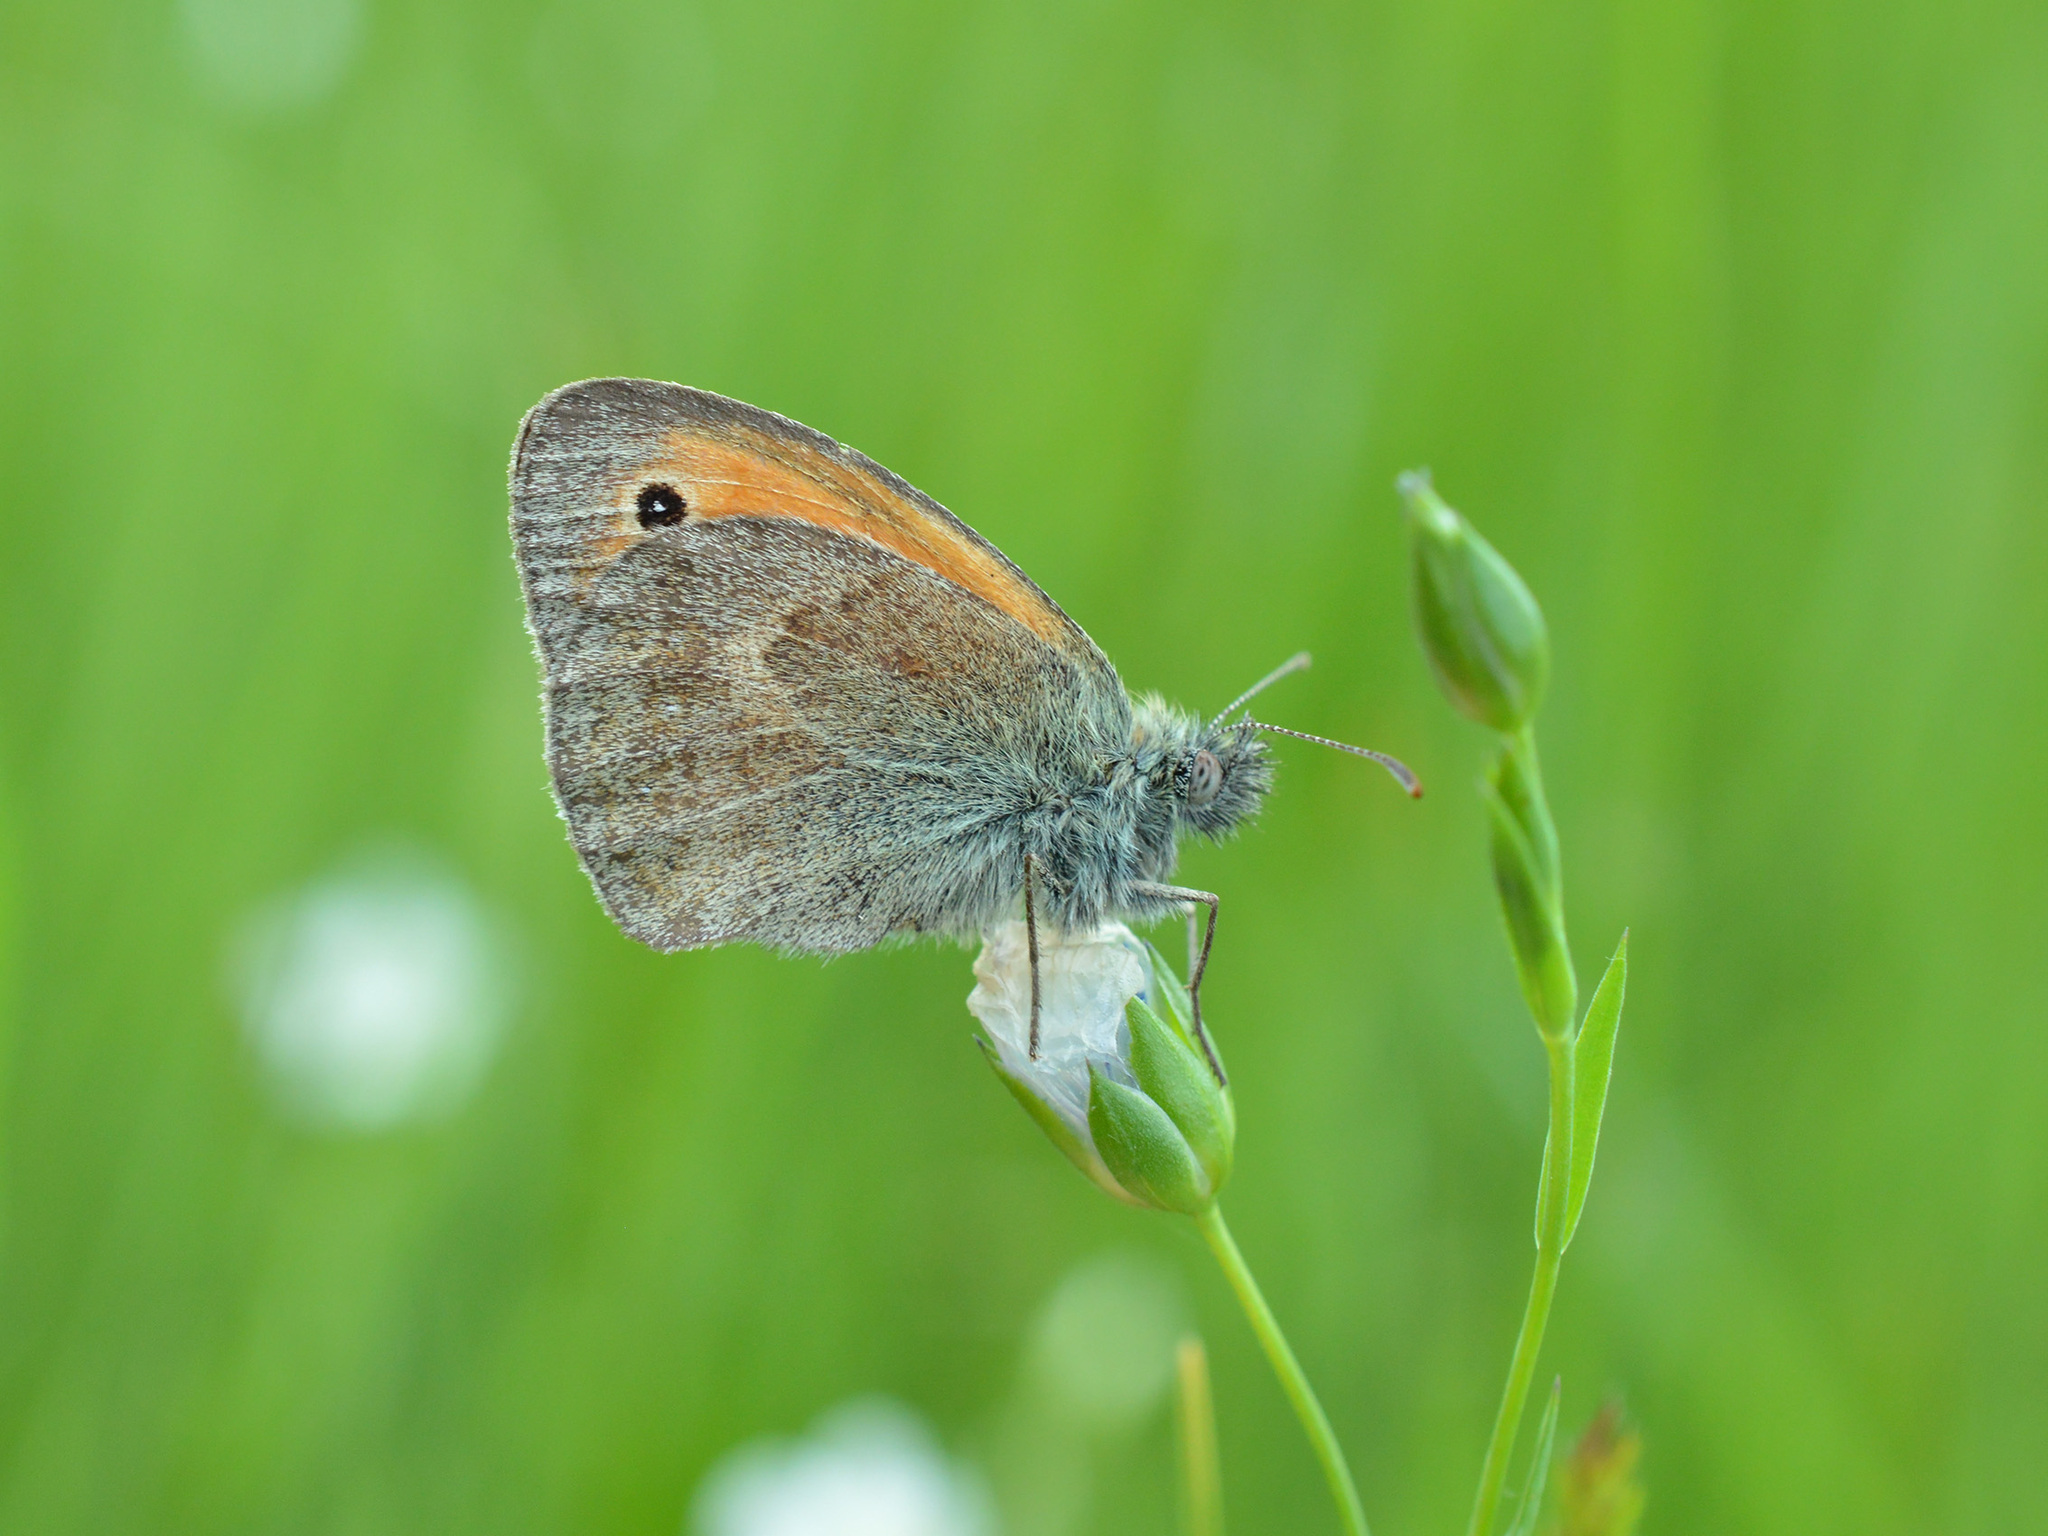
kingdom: Animalia
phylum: Arthropoda
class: Insecta
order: Lepidoptera
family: Nymphalidae
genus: Coenonympha
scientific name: Coenonympha pamphilus
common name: Small heath
